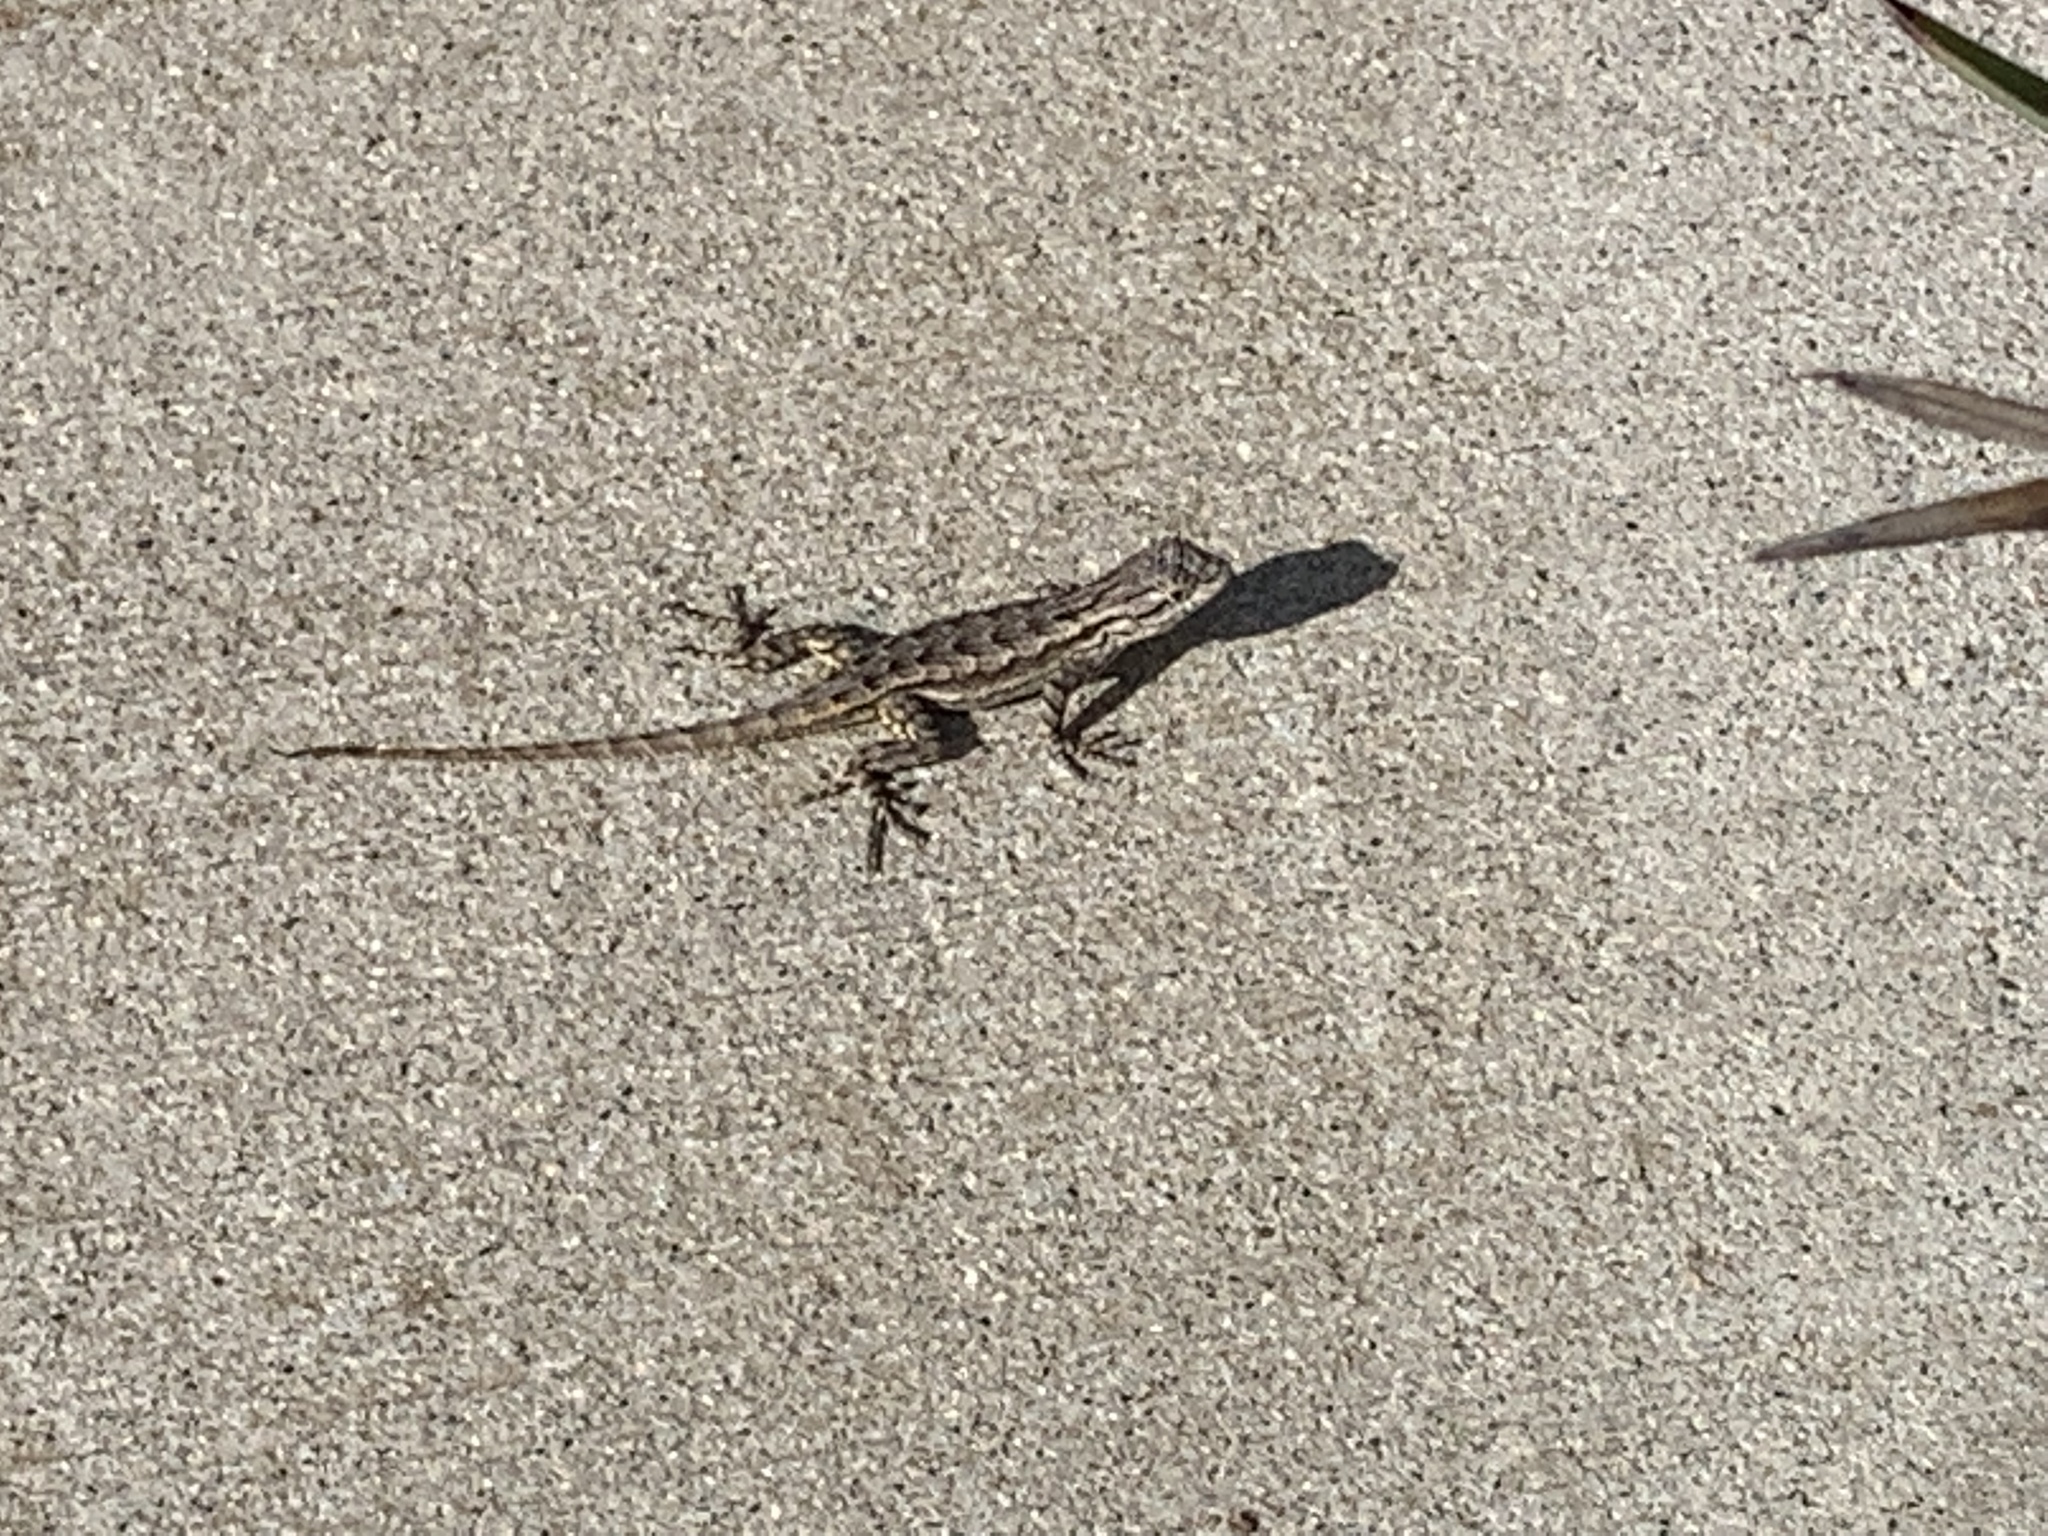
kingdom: Animalia
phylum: Chordata
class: Squamata
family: Phrynosomatidae
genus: Sceloporus
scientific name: Sceloporus occidentalis
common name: Western fence lizard
